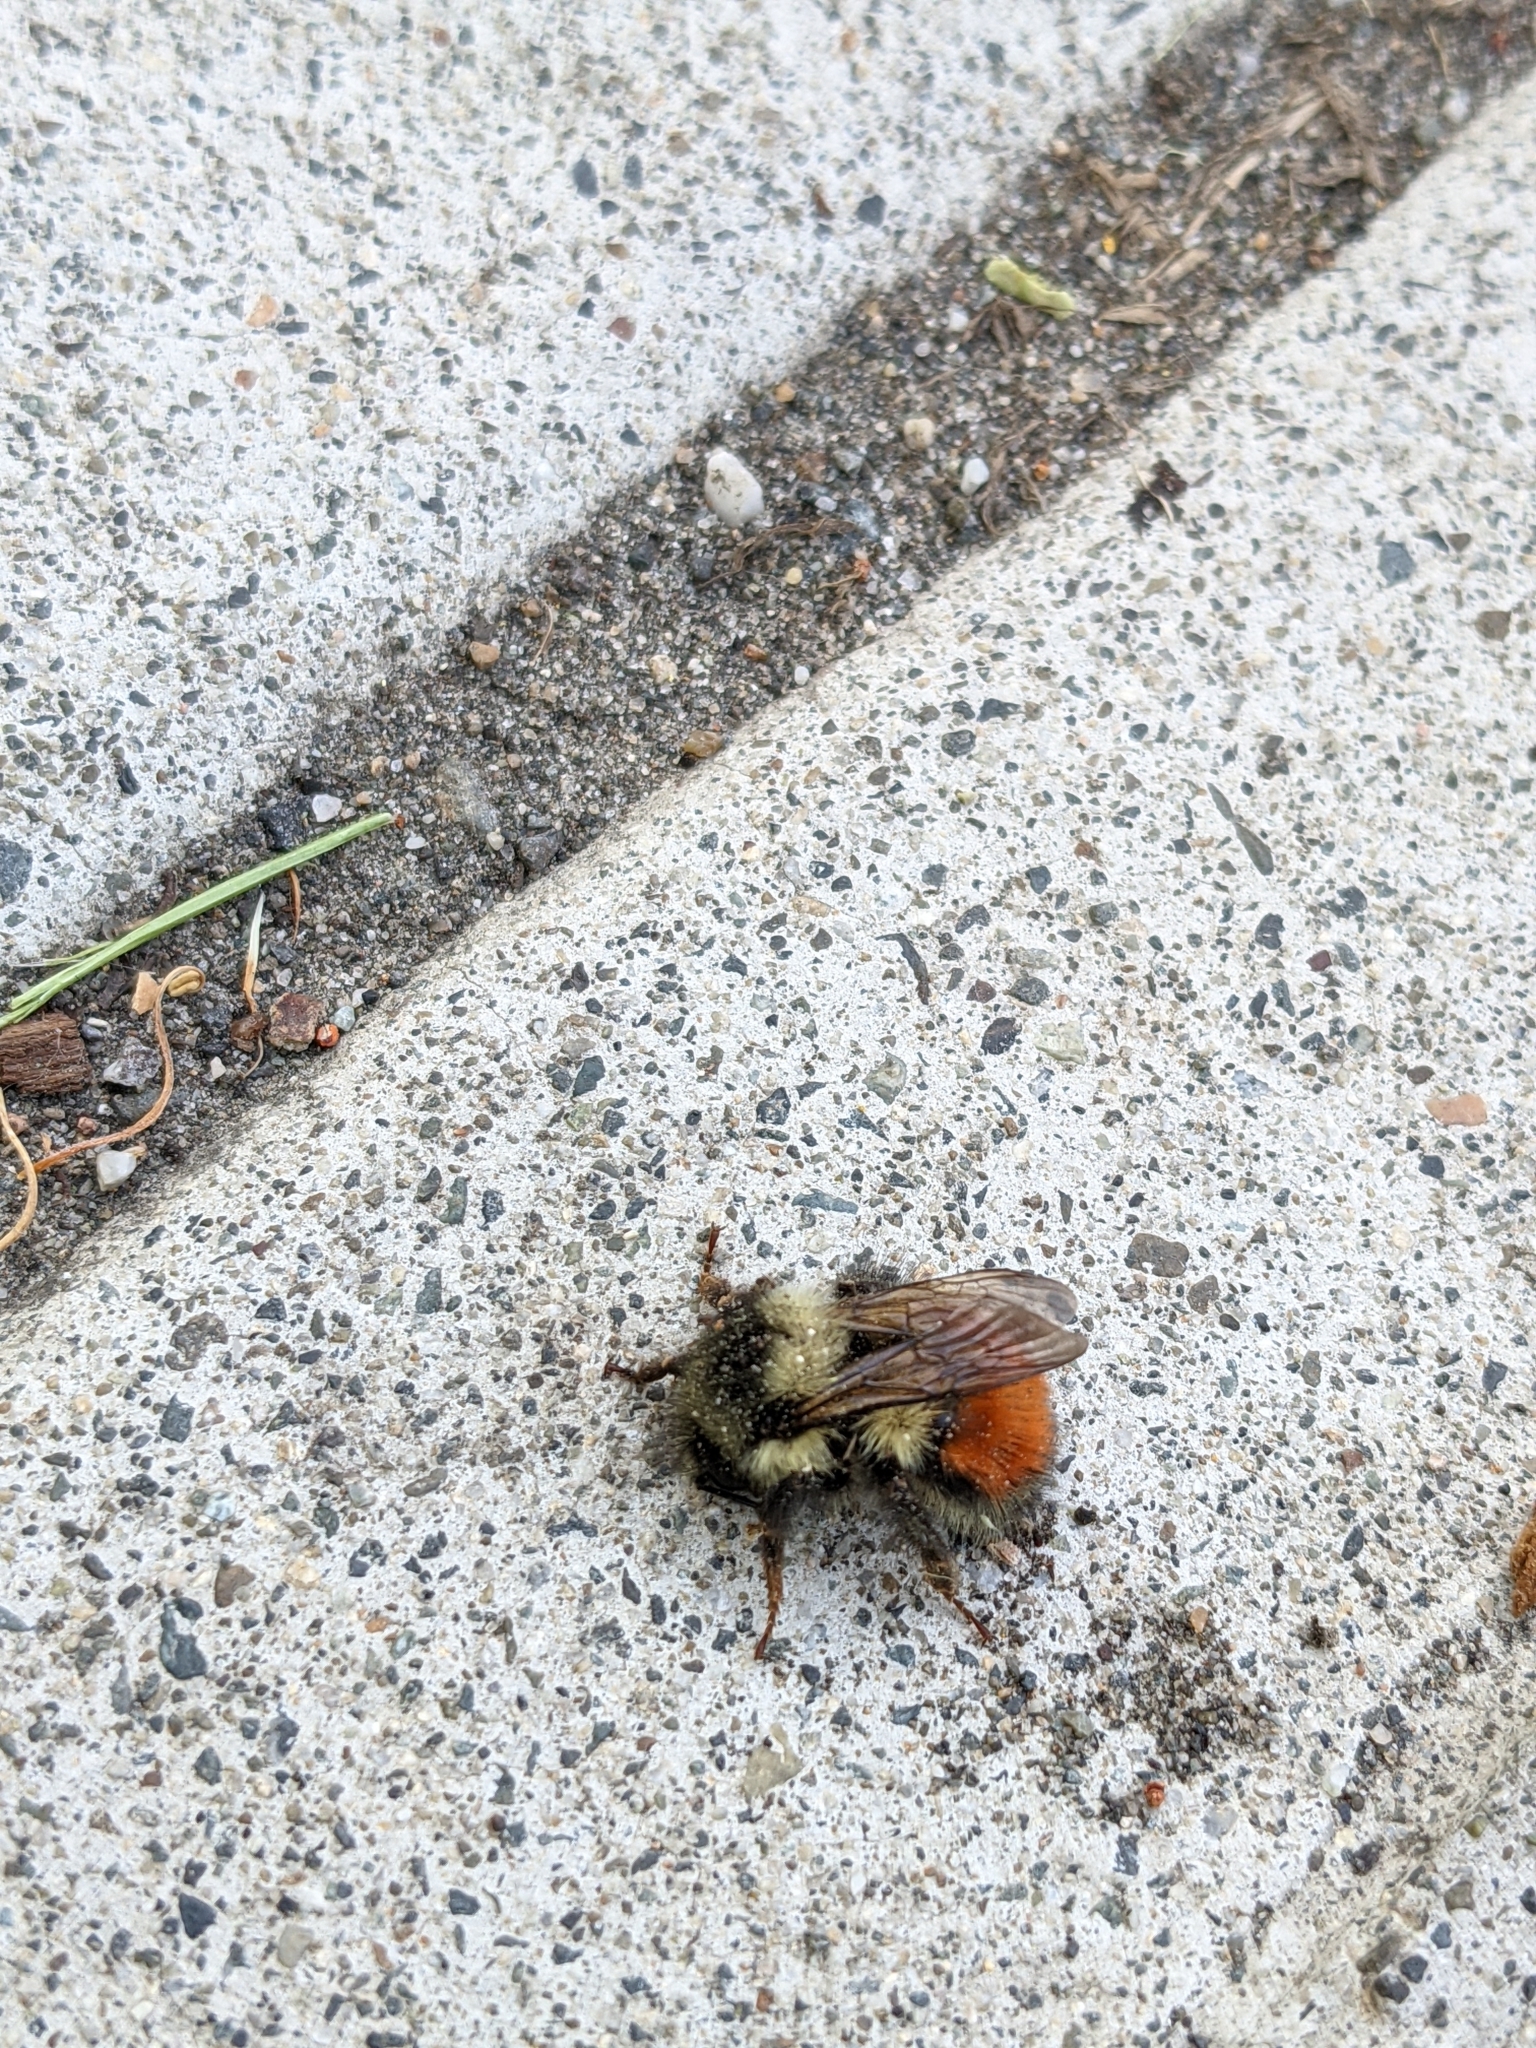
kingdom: Animalia
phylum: Arthropoda
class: Insecta
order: Hymenoptera
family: Apidae
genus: Bombus
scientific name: Bombus melanopygus
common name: Black tail bumble bee
